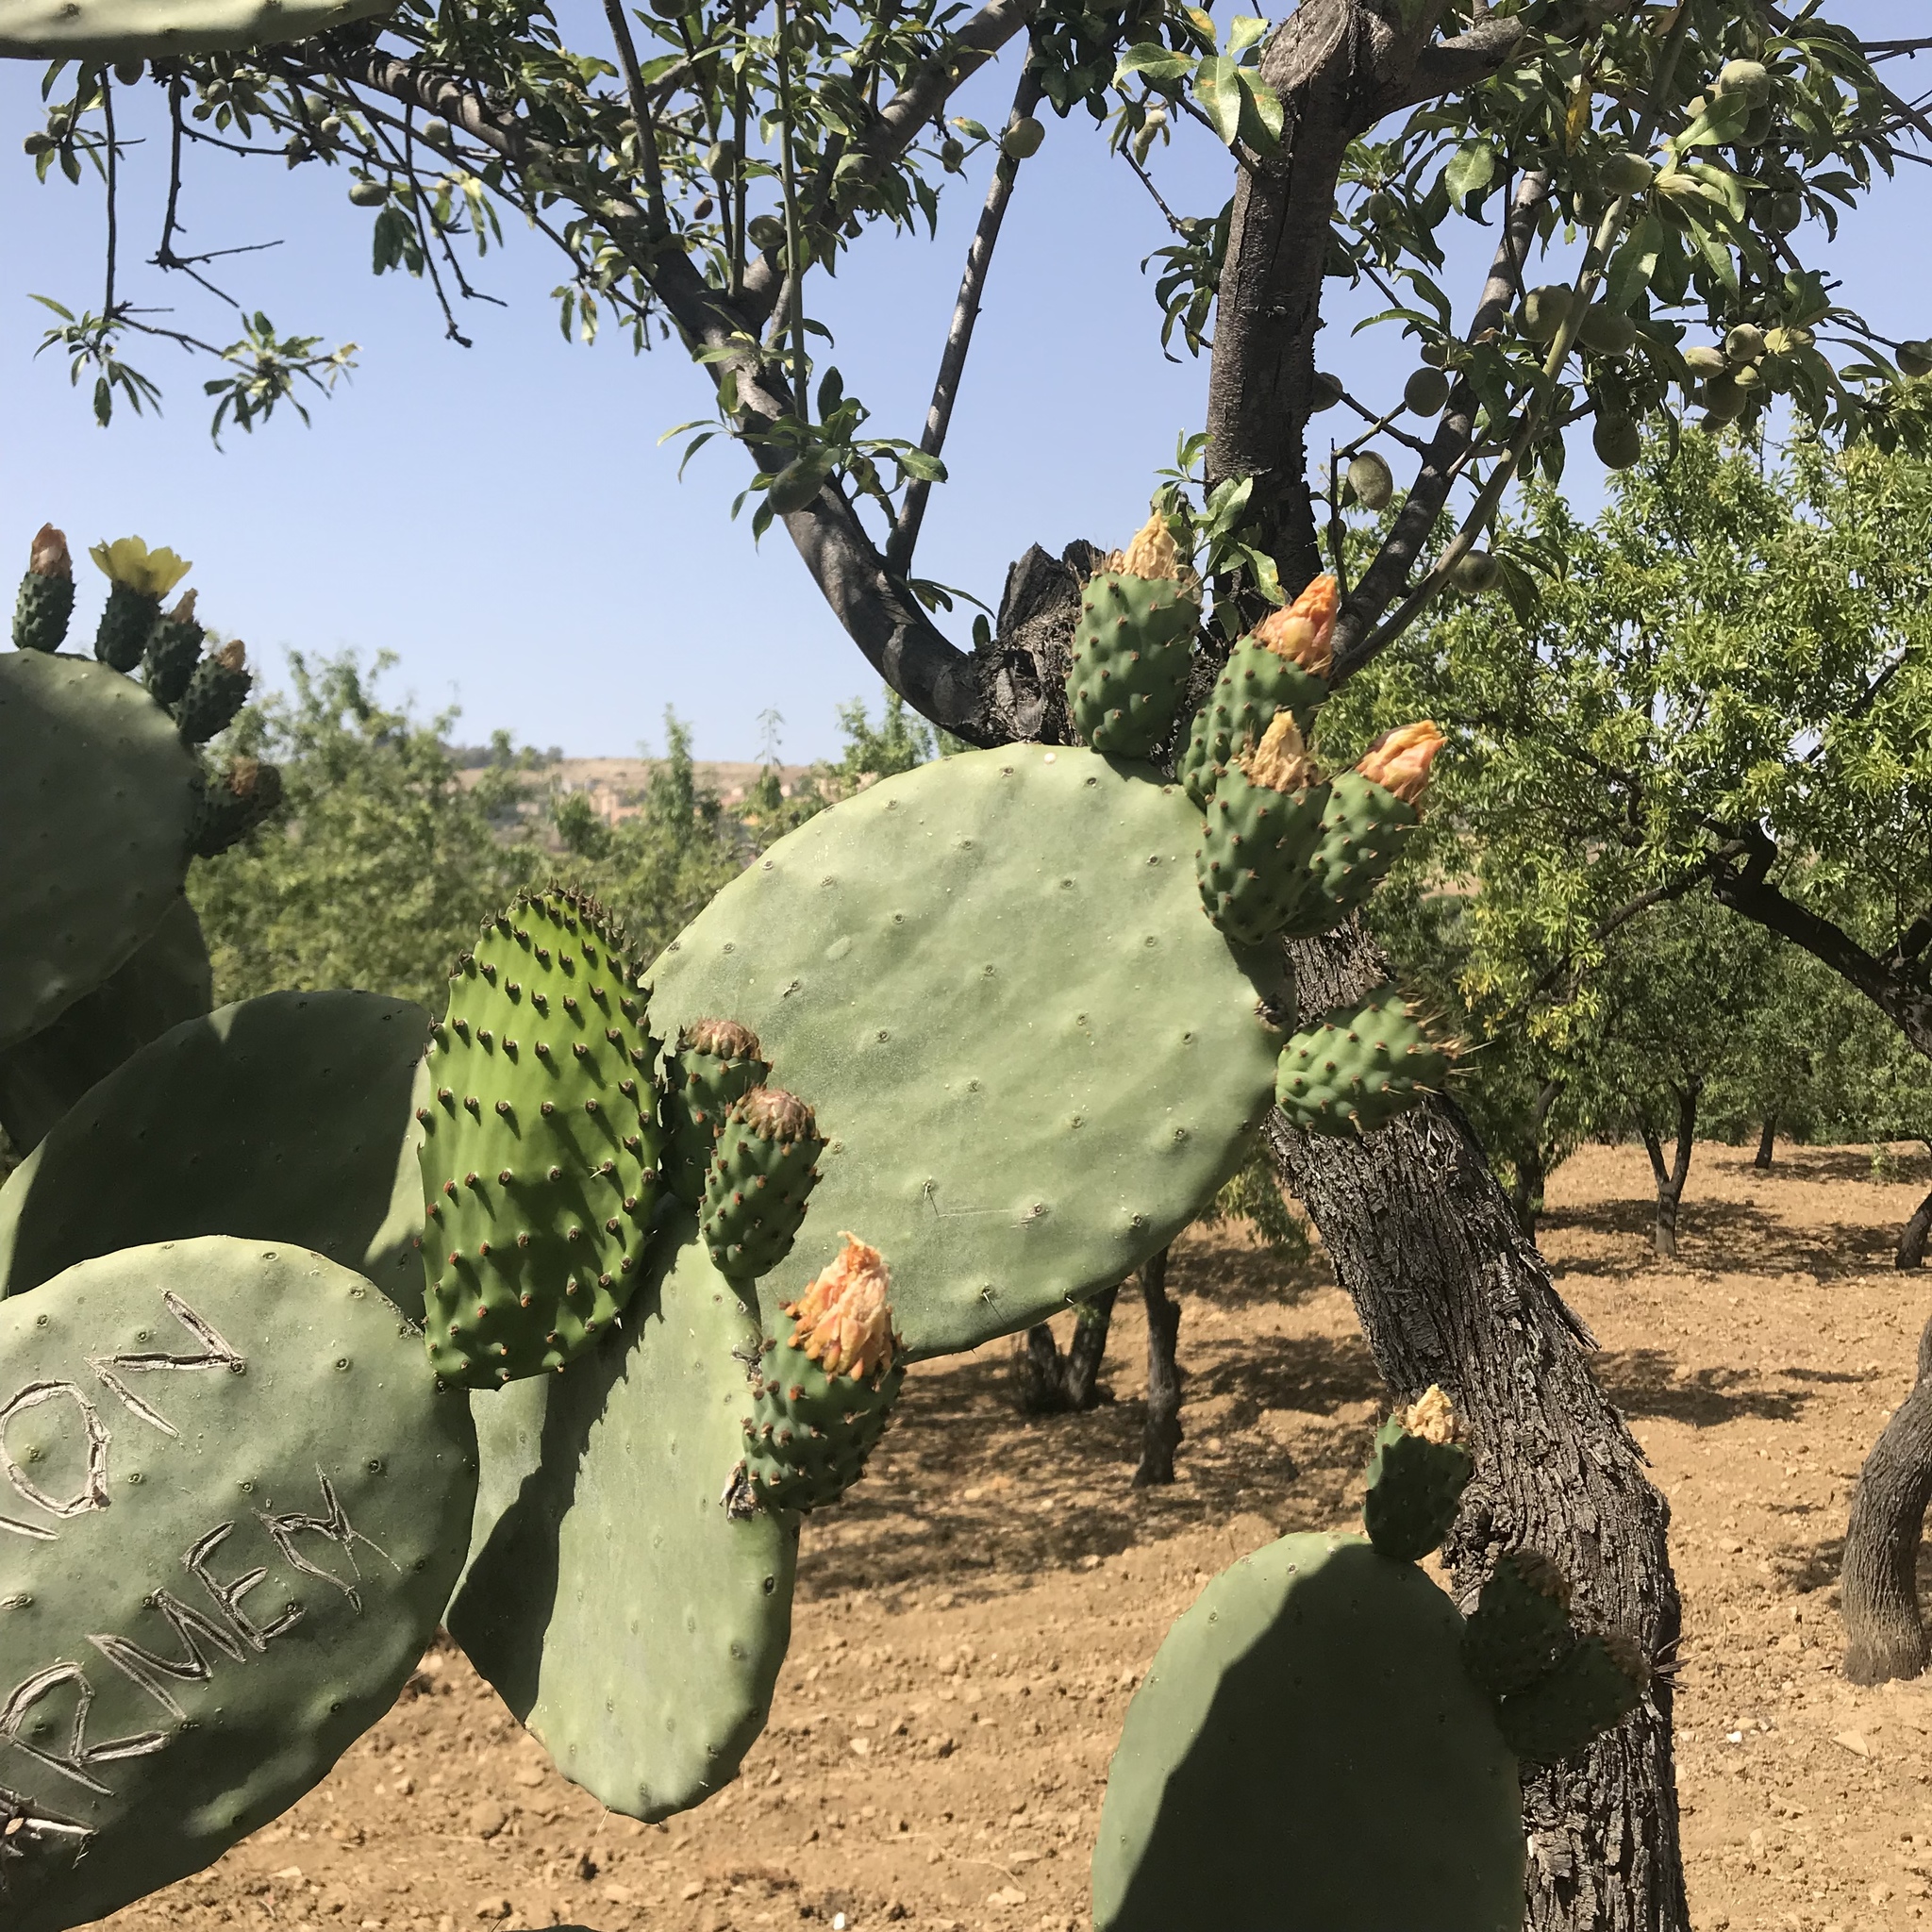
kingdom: Plantae
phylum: Tracheophyta
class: Magnoliopsida
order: Caryophyllales
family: Cactaceae
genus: Opuntia
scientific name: Opuntia ficus-indica
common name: Barbary fig
